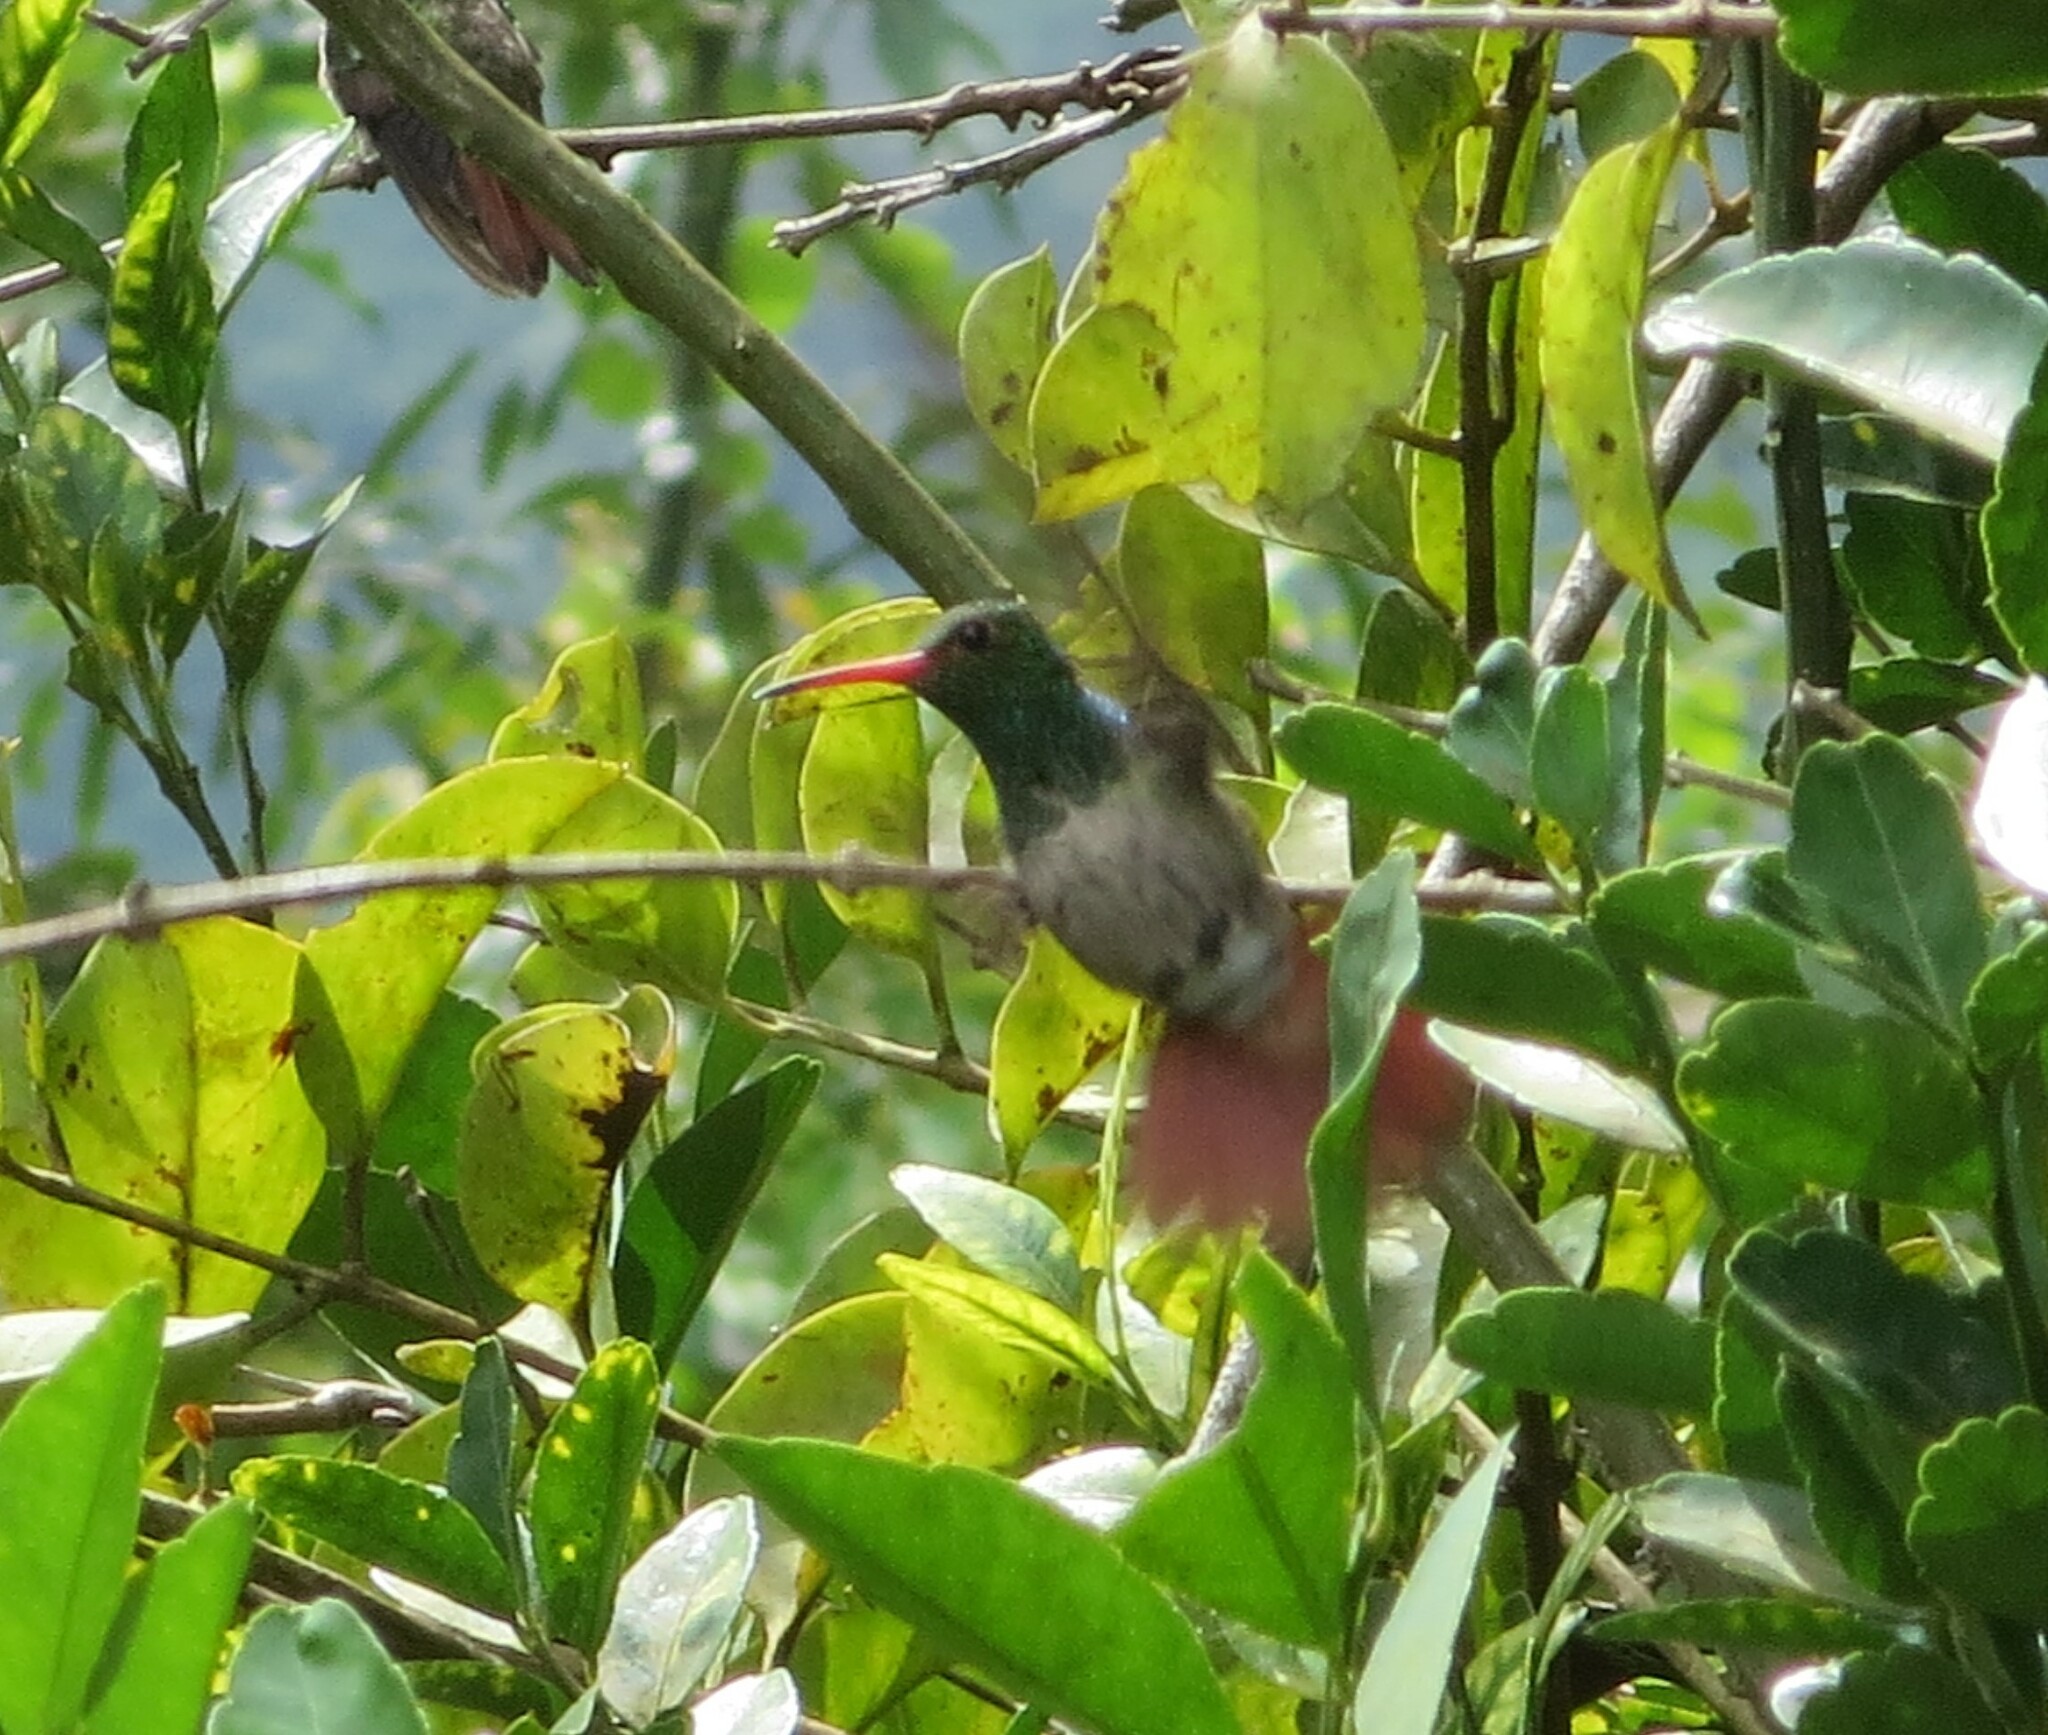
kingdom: Animalia
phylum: Chordata
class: Aves
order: Apodiformes
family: Trochilidae
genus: Amazilia
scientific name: Amazilia tzacatl
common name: Rufous-tailed hummingbird
